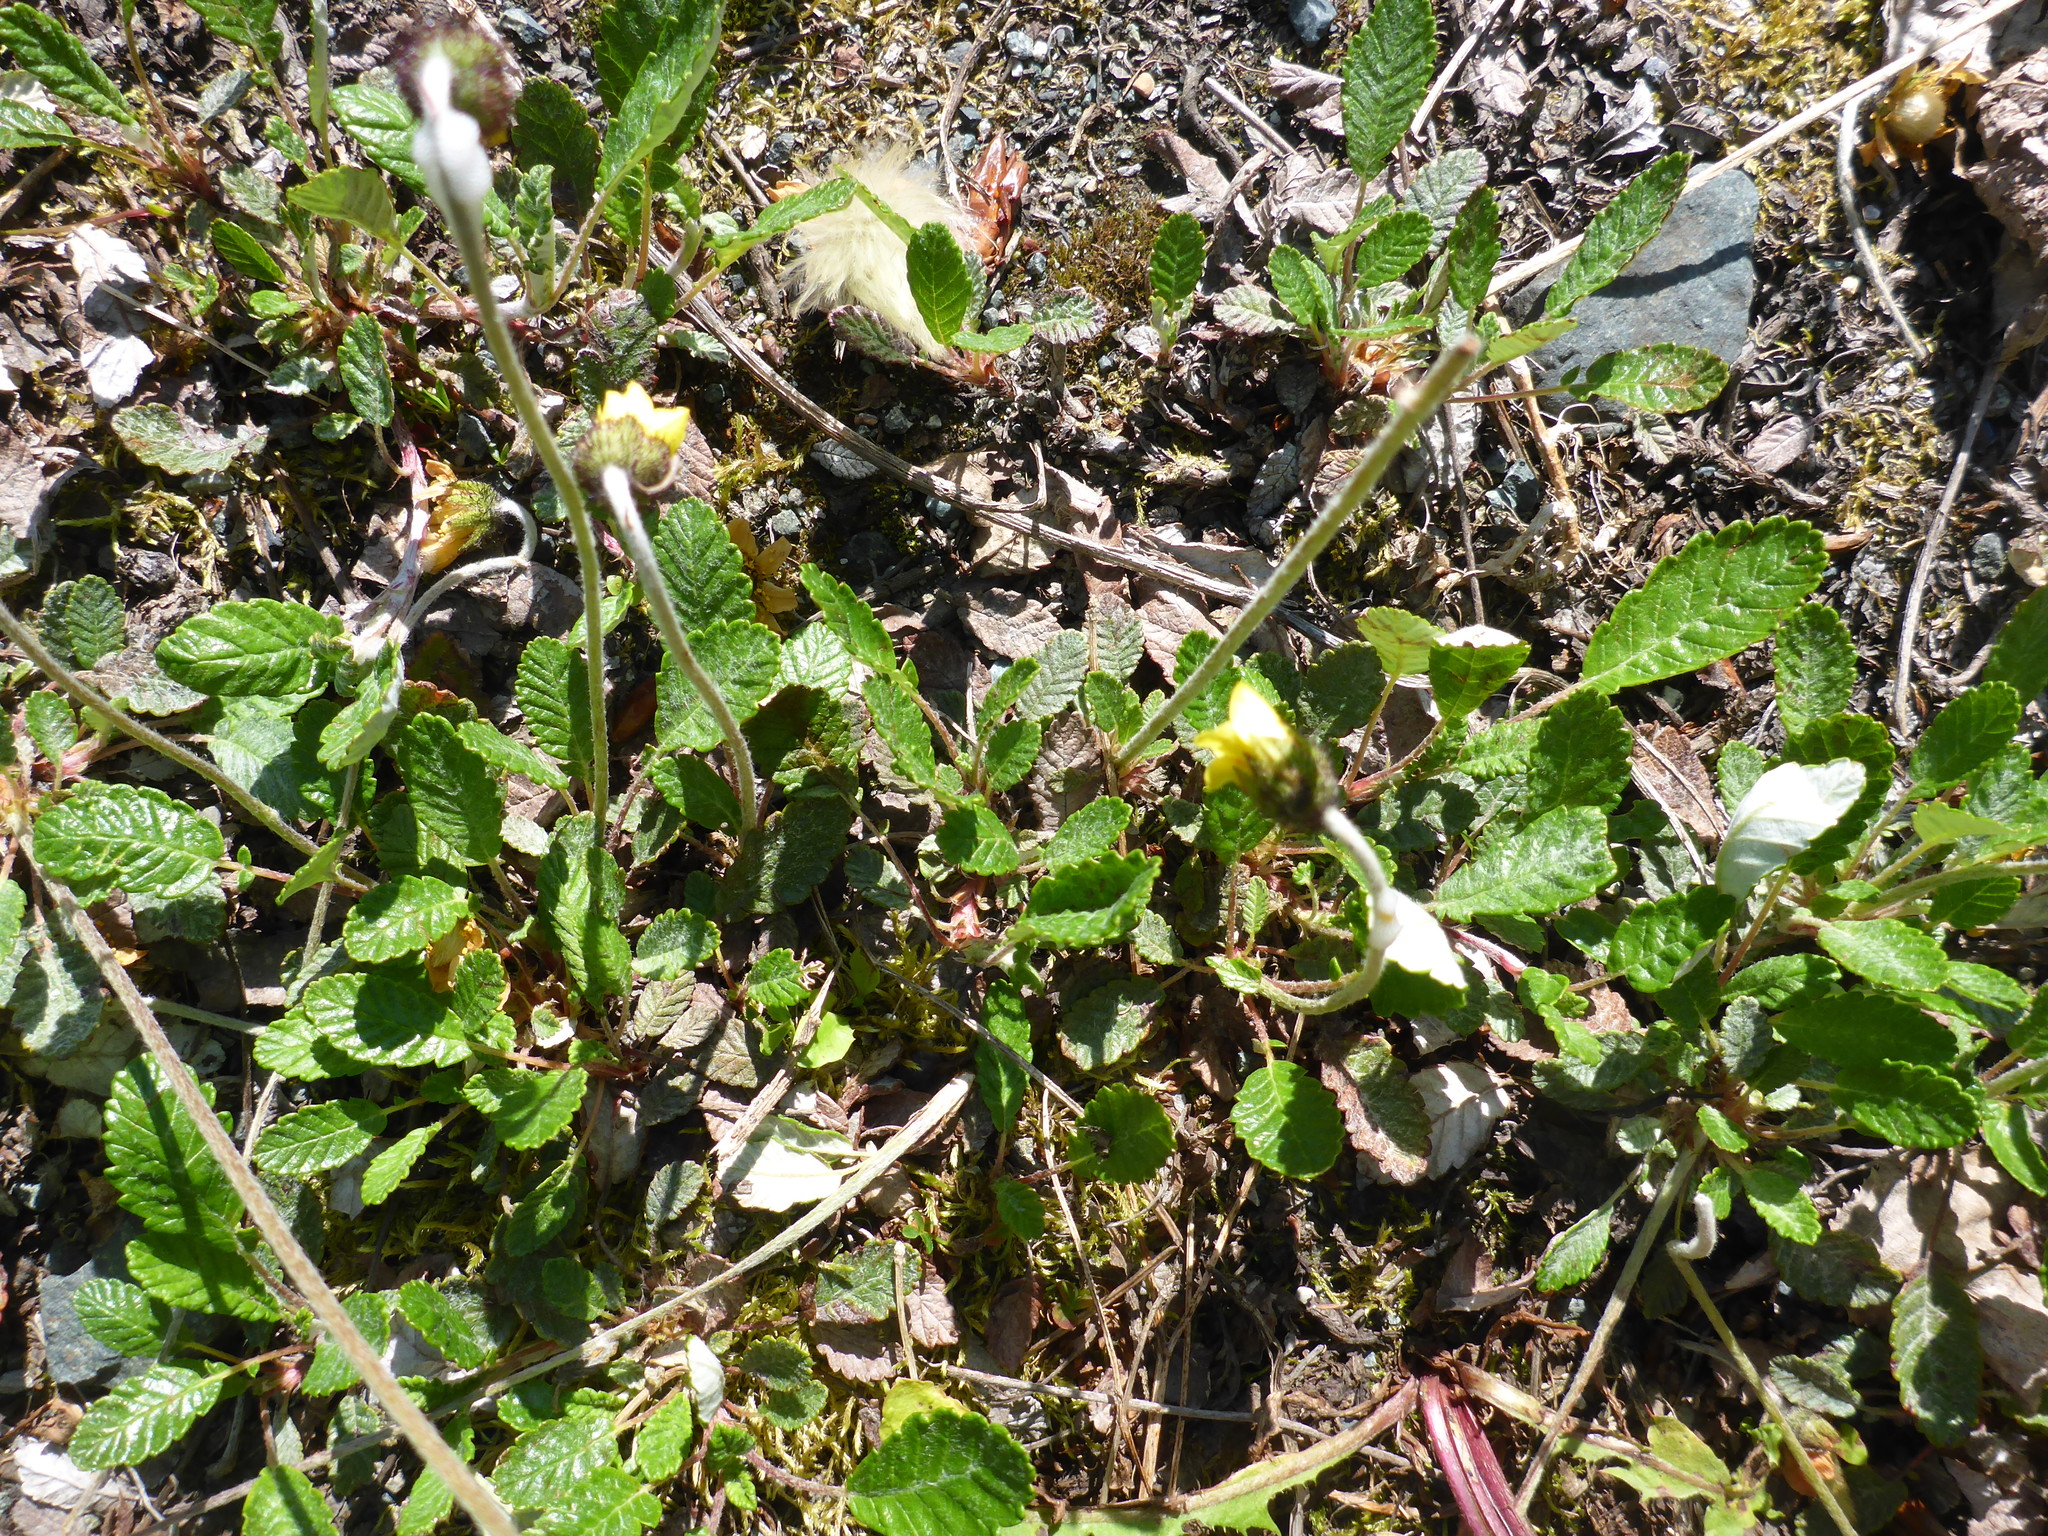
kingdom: Plantae
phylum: Tracheophyta
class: Magnoliopsida
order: Rosales
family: Rosaceae
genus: Dryas
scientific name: Dryas drummondii
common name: Drummond's dryad
